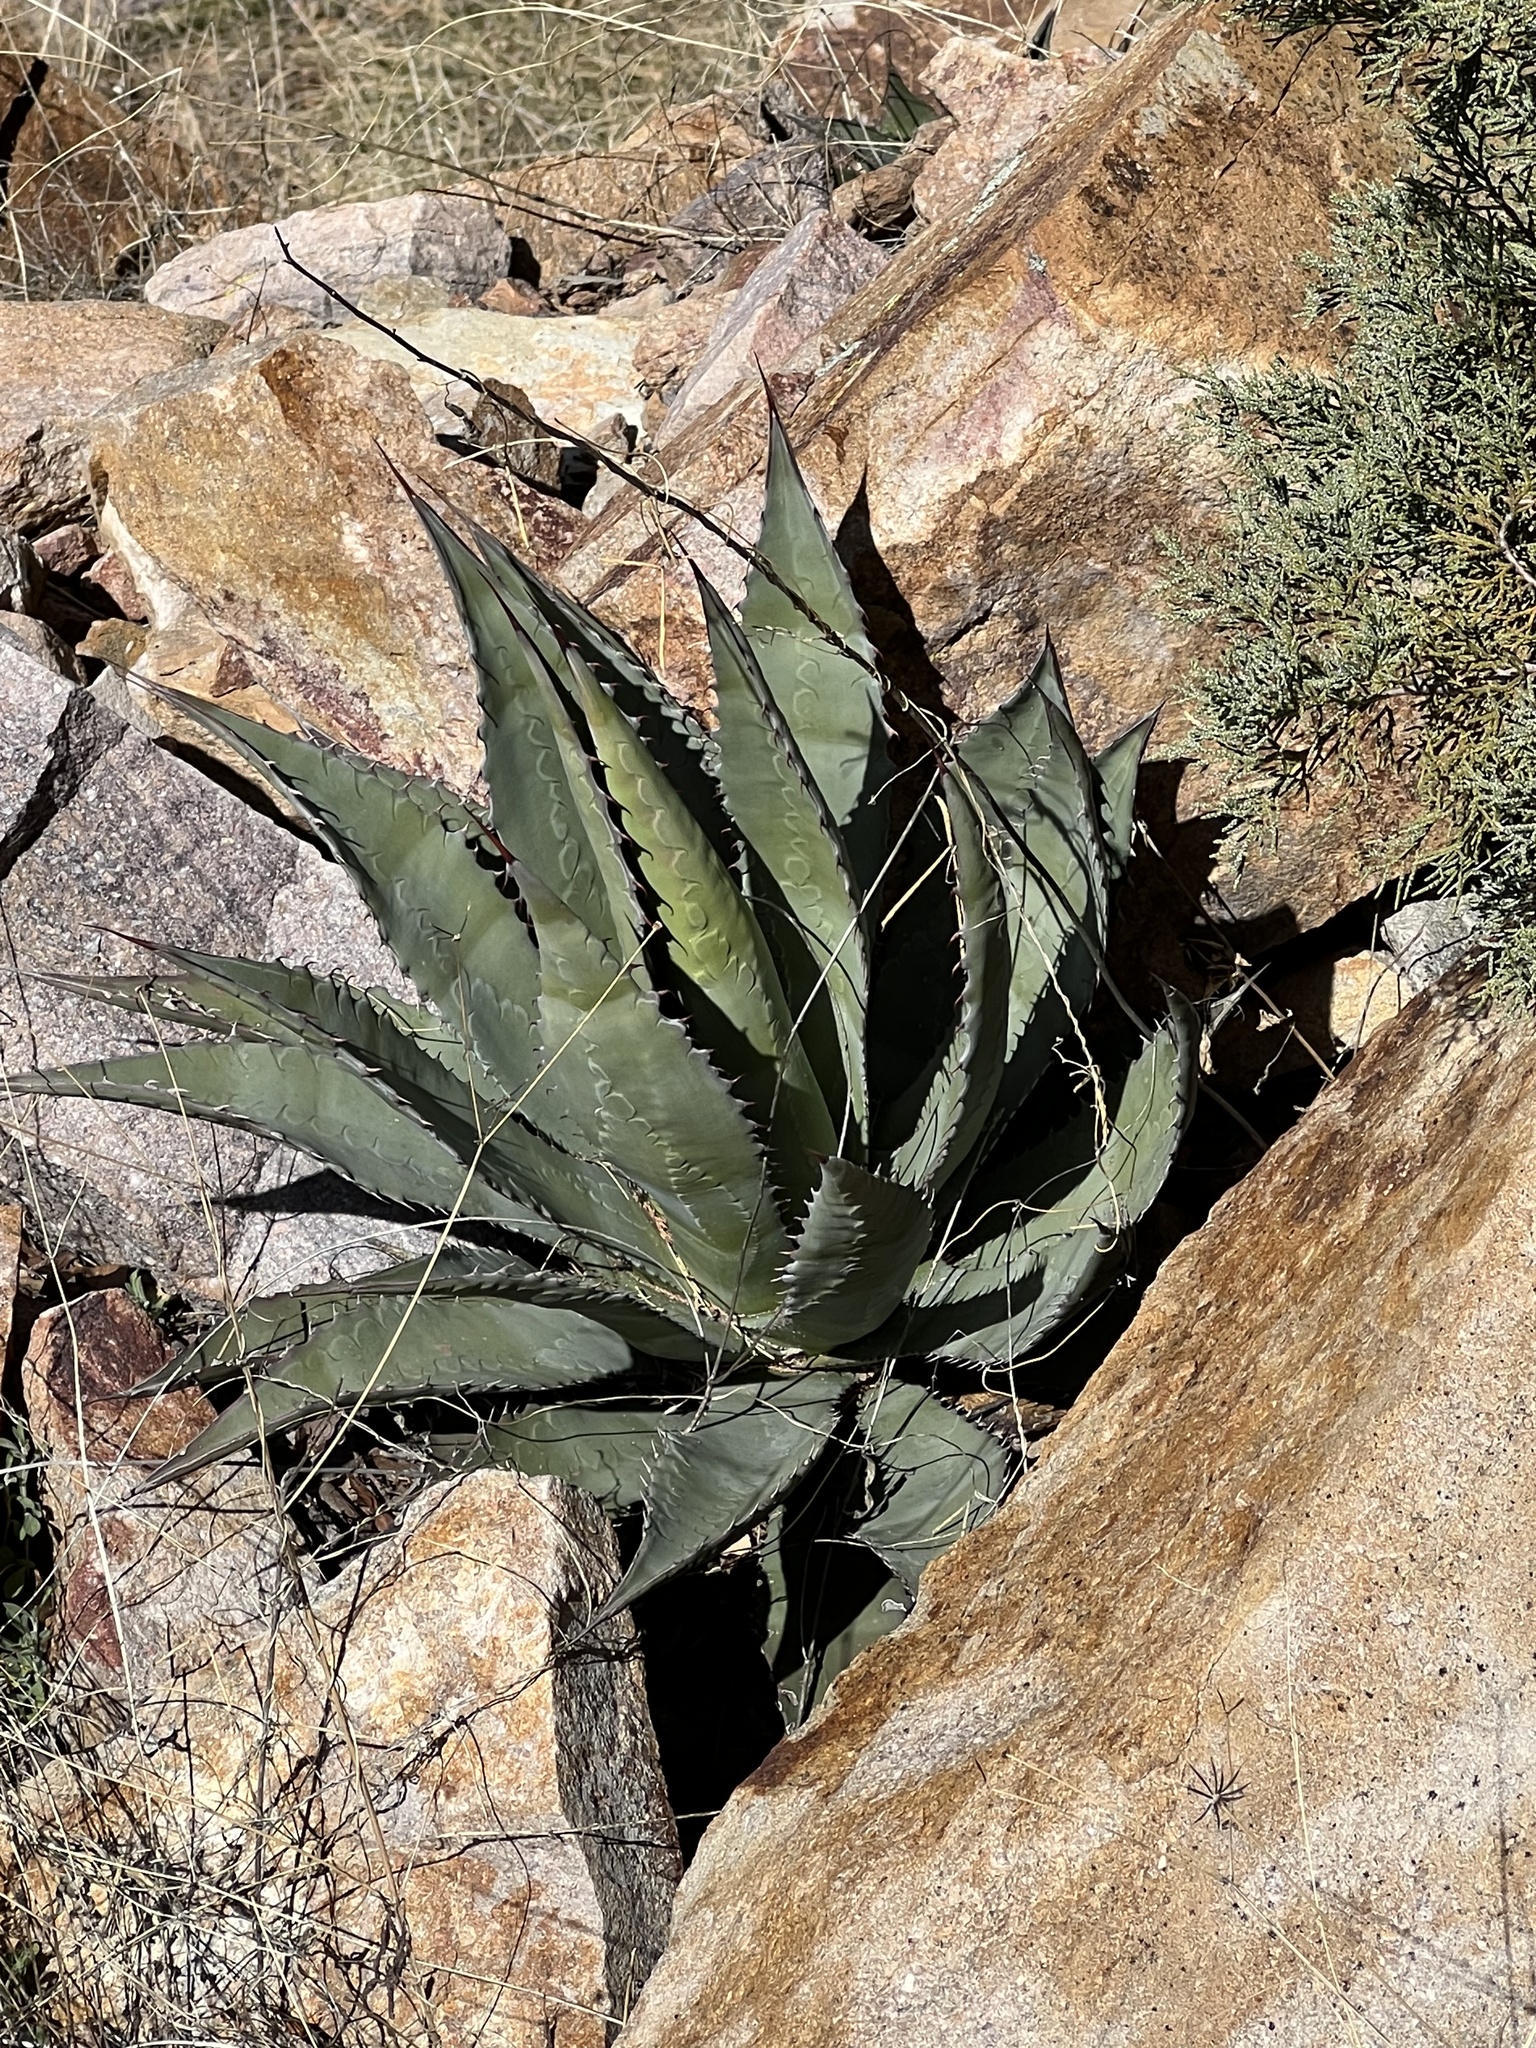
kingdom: Plantae
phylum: Tracheophyta
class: Liliopsida
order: Asparagales
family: Asparagaceae
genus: Agave
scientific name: Agave palmeri
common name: Palmer agave
